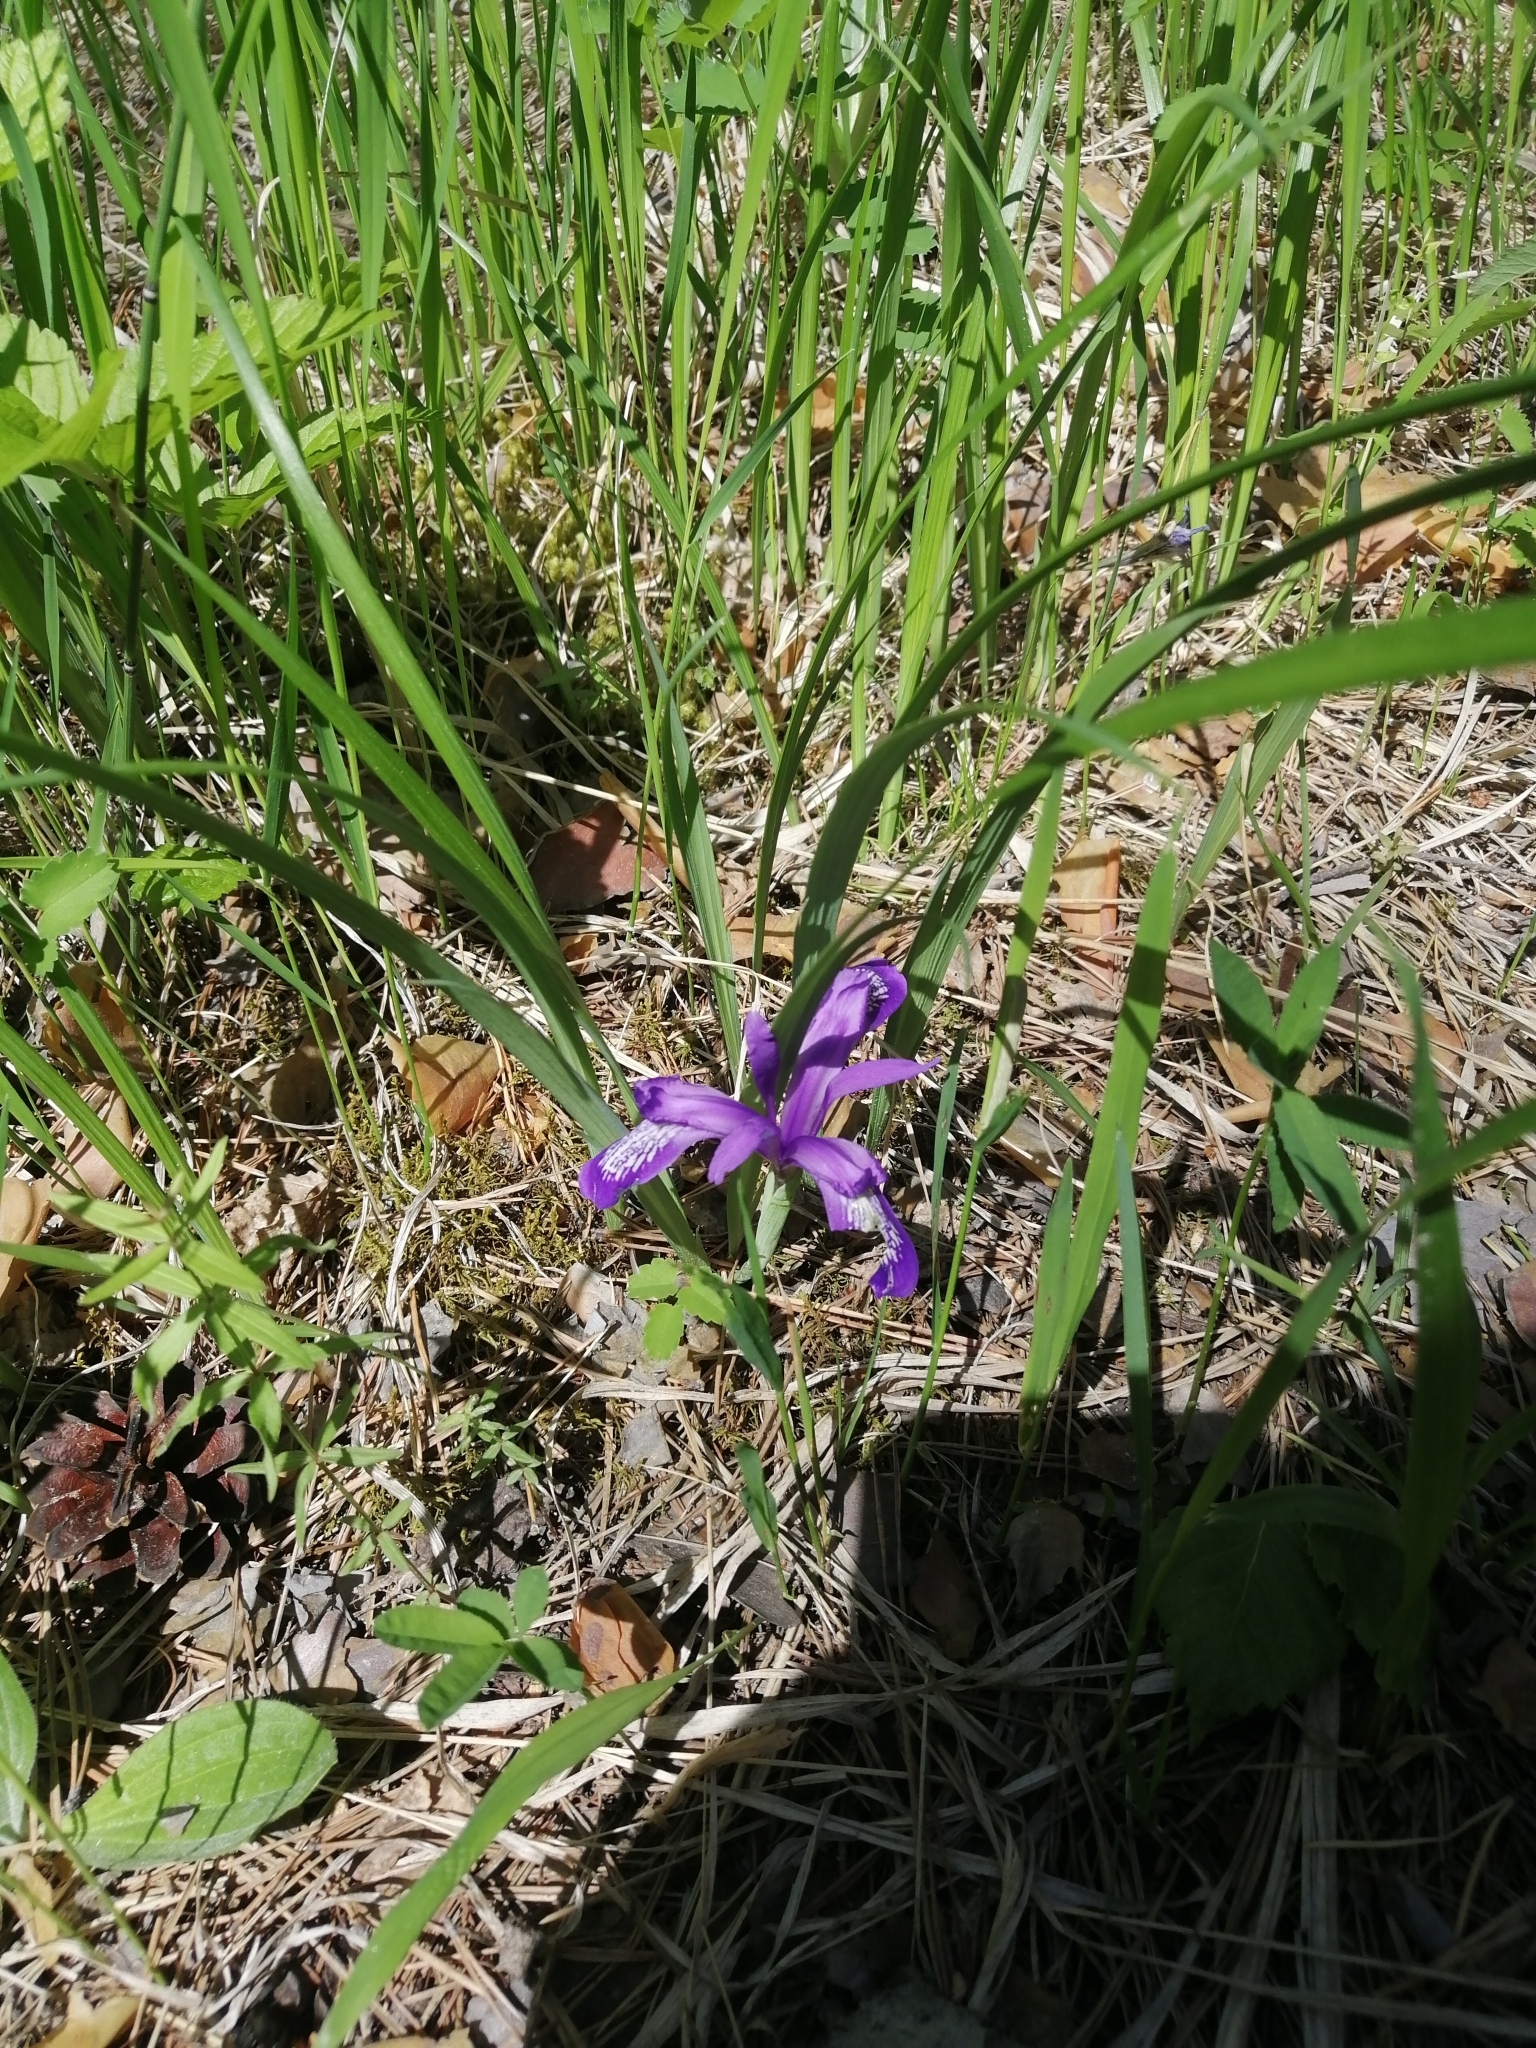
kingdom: Plantae
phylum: Tracheophyta
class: Liliopsida
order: Asparagales
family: Iridaceae
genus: Iris
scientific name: Iris ruthenica
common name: Purple-bract iris
